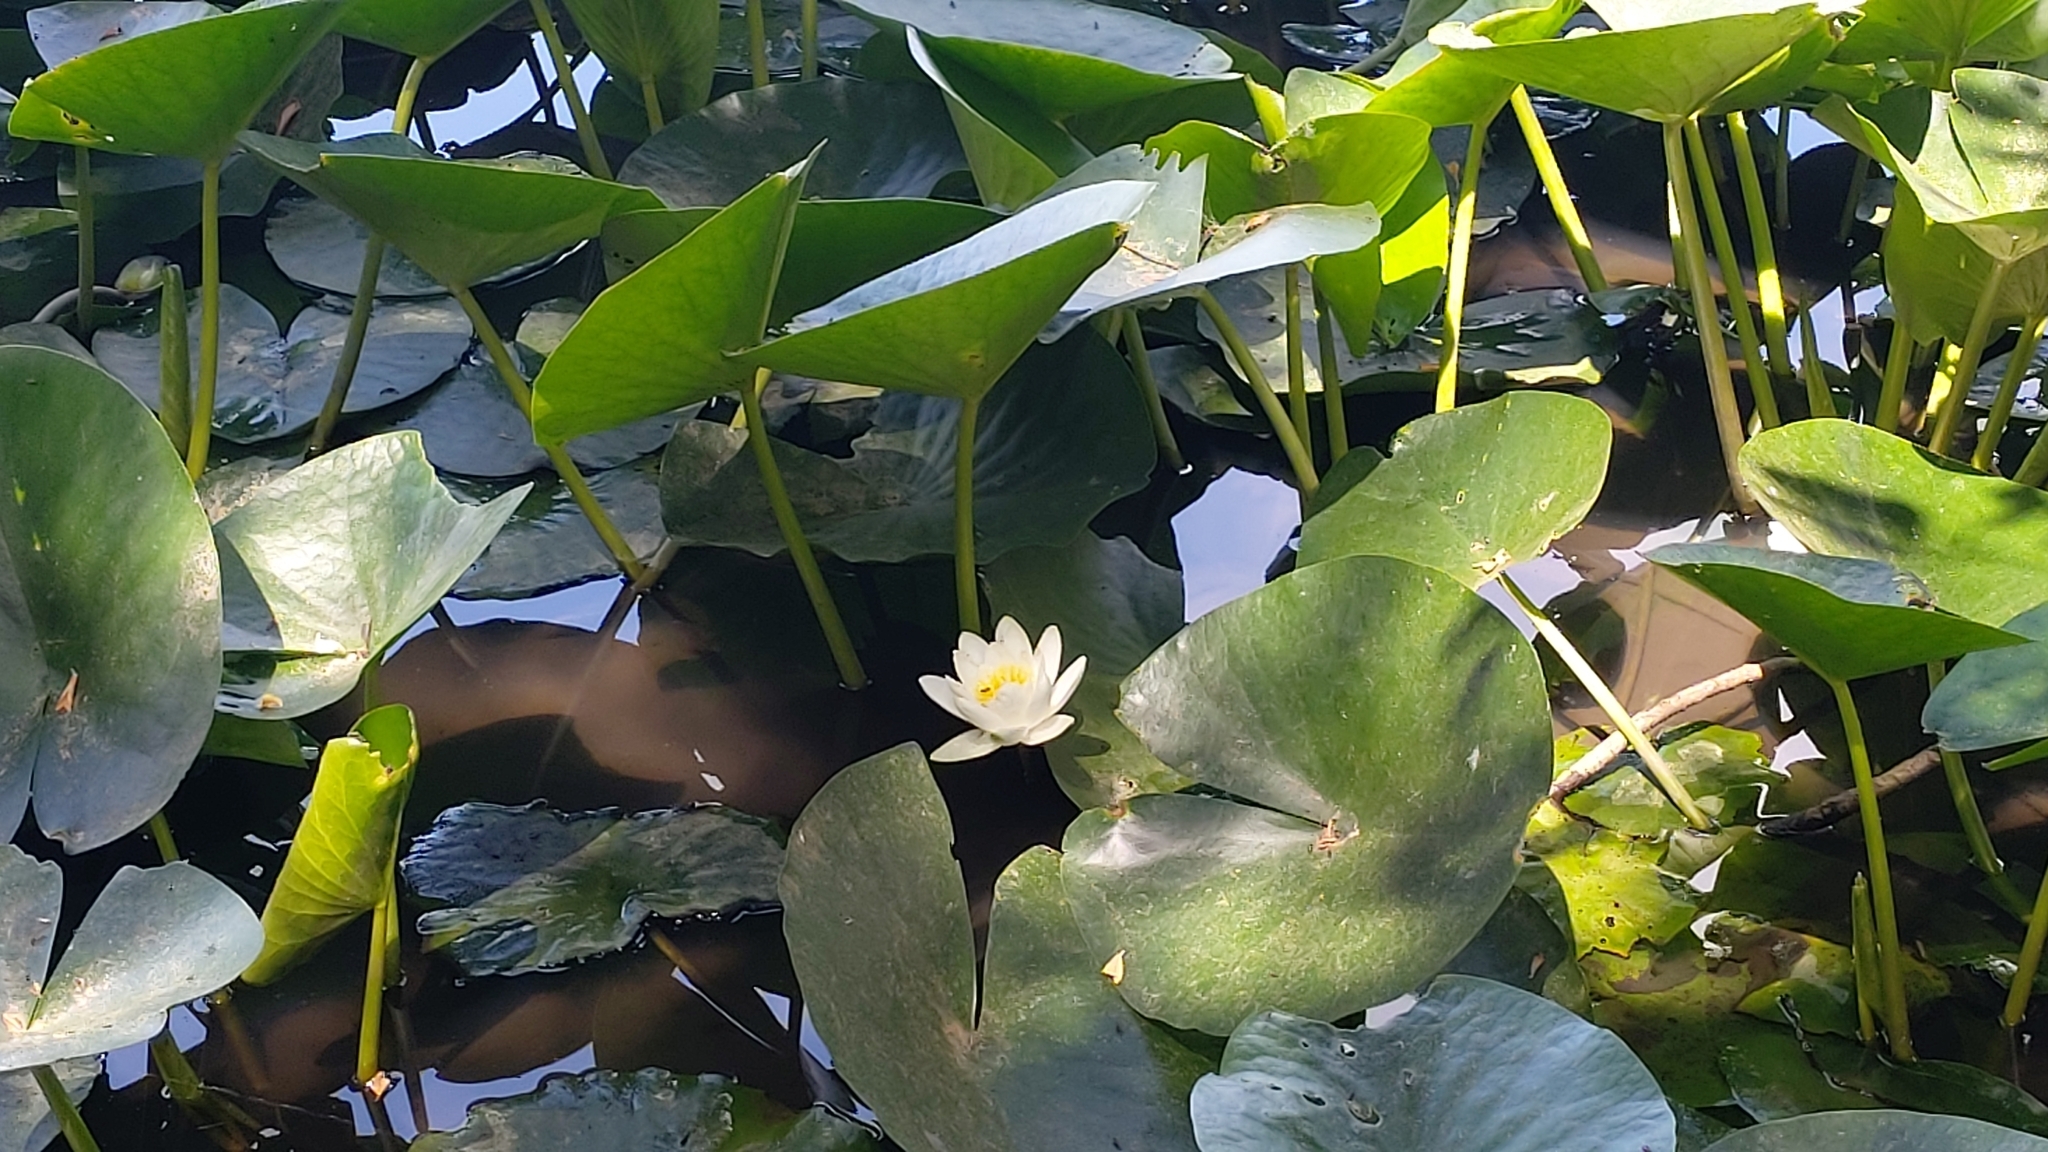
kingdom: Plantae
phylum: Tracheophyta
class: Magnoliopsida
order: Nymphaeales
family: Nymphaeaceae
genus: Nymphaea
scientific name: Nymphaea alba
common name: White water-lily
